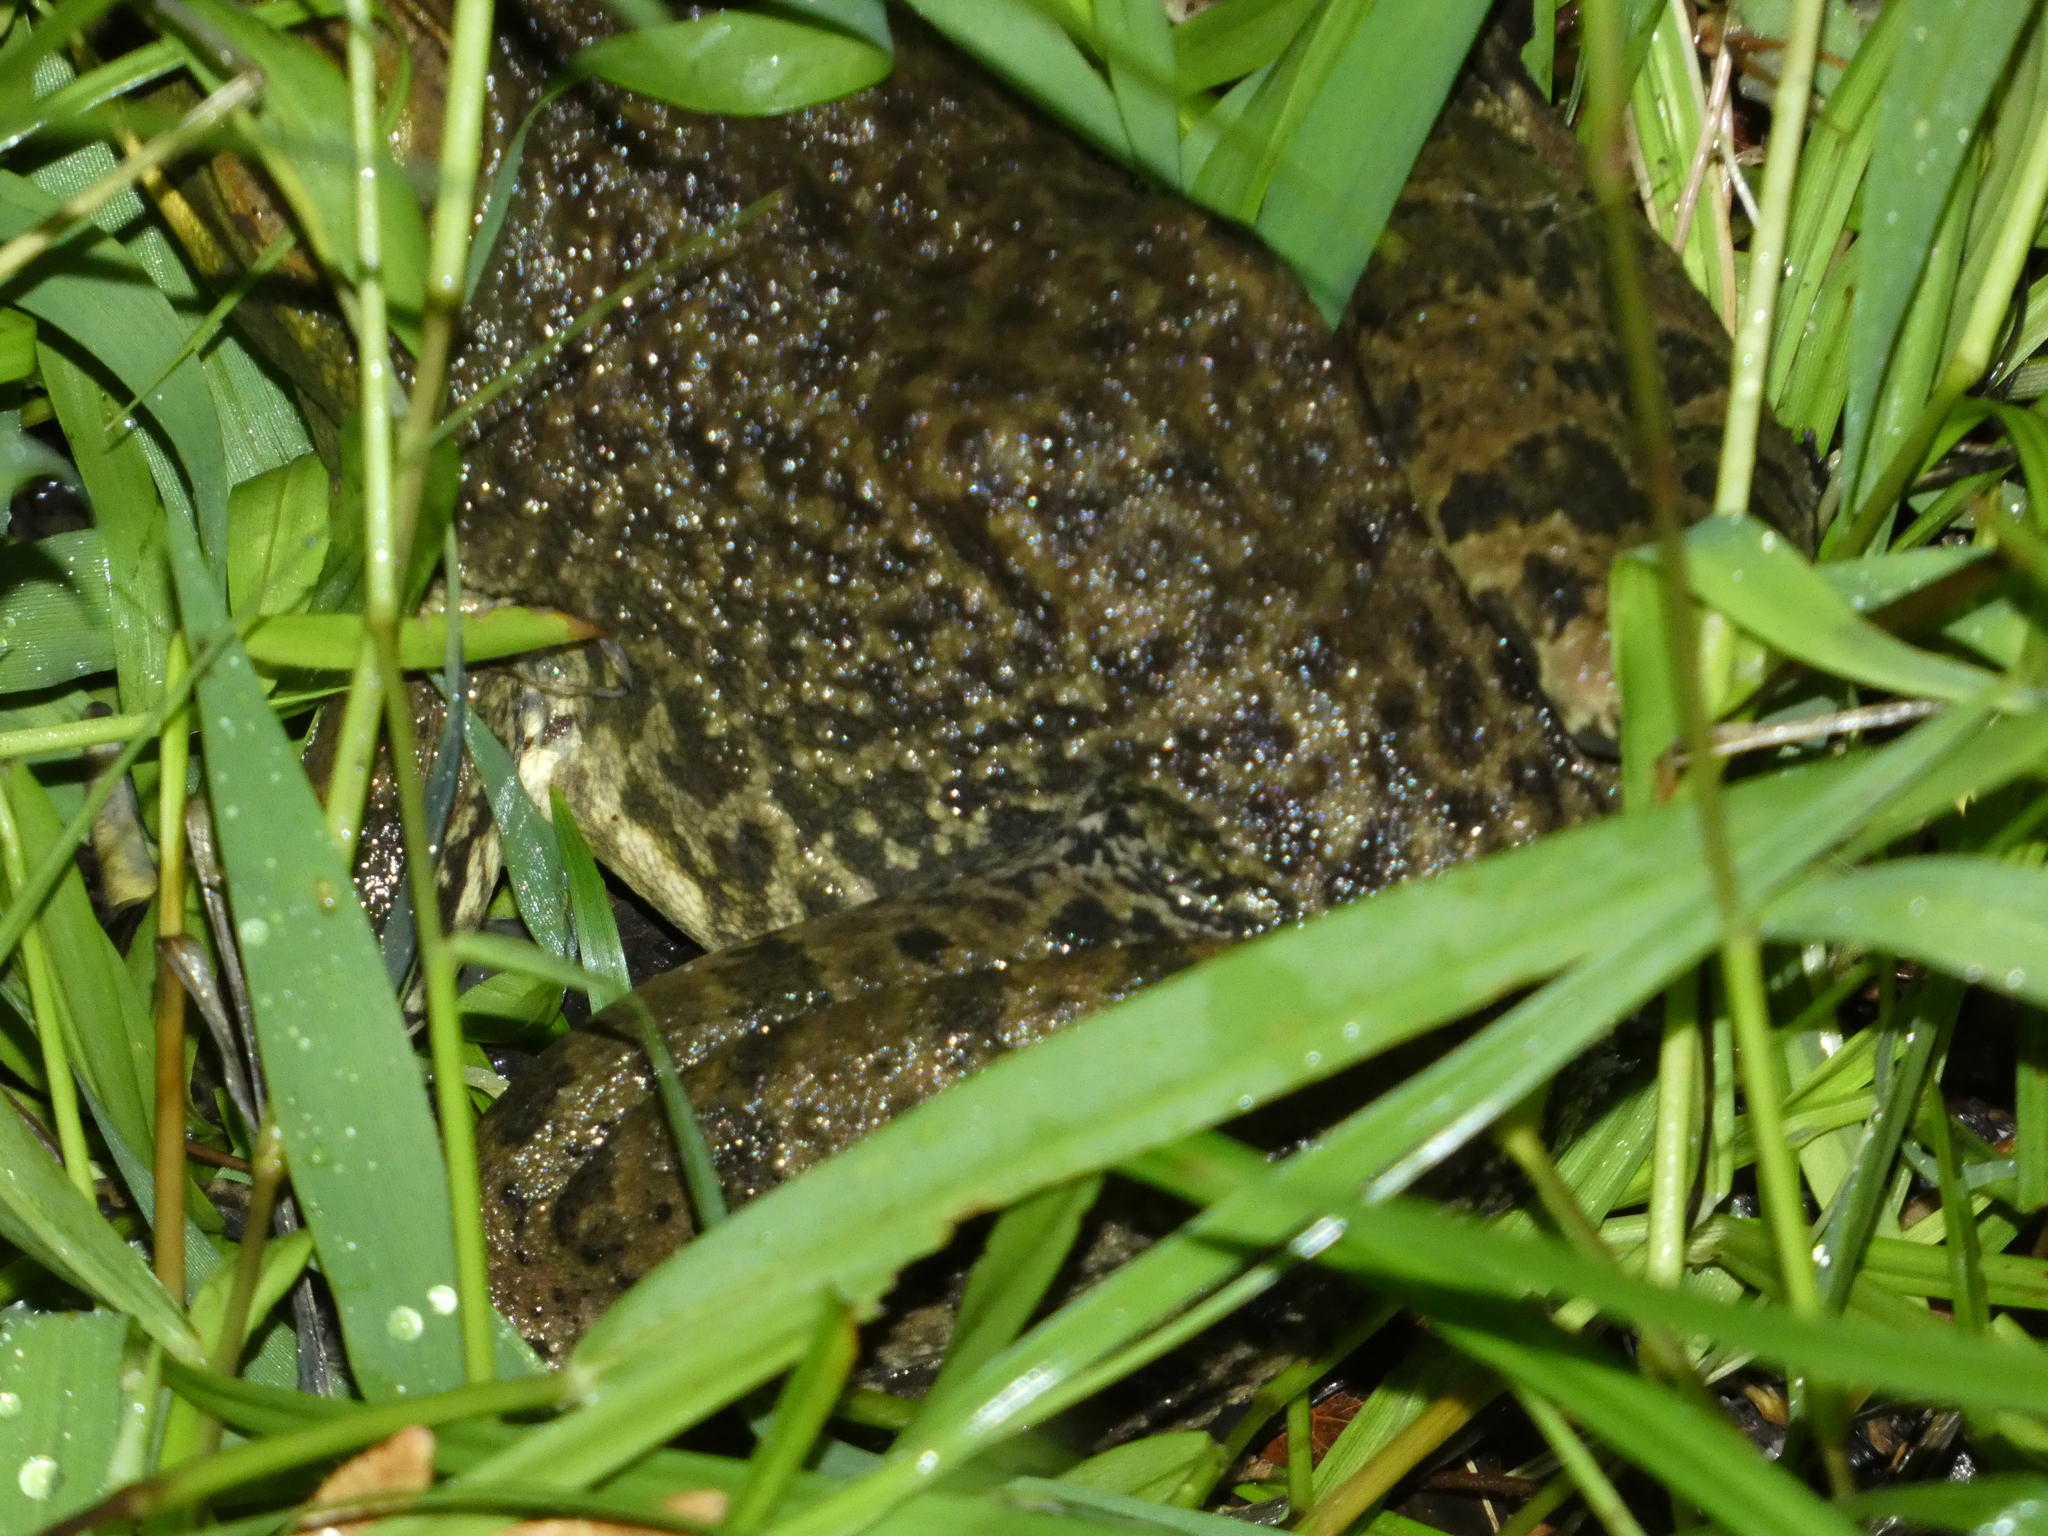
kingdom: Animalia
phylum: Chordata
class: Amphibia
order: Anura
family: Ranidae
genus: Lithobates
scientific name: Lithobates catesbeianus
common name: American bullfrog
